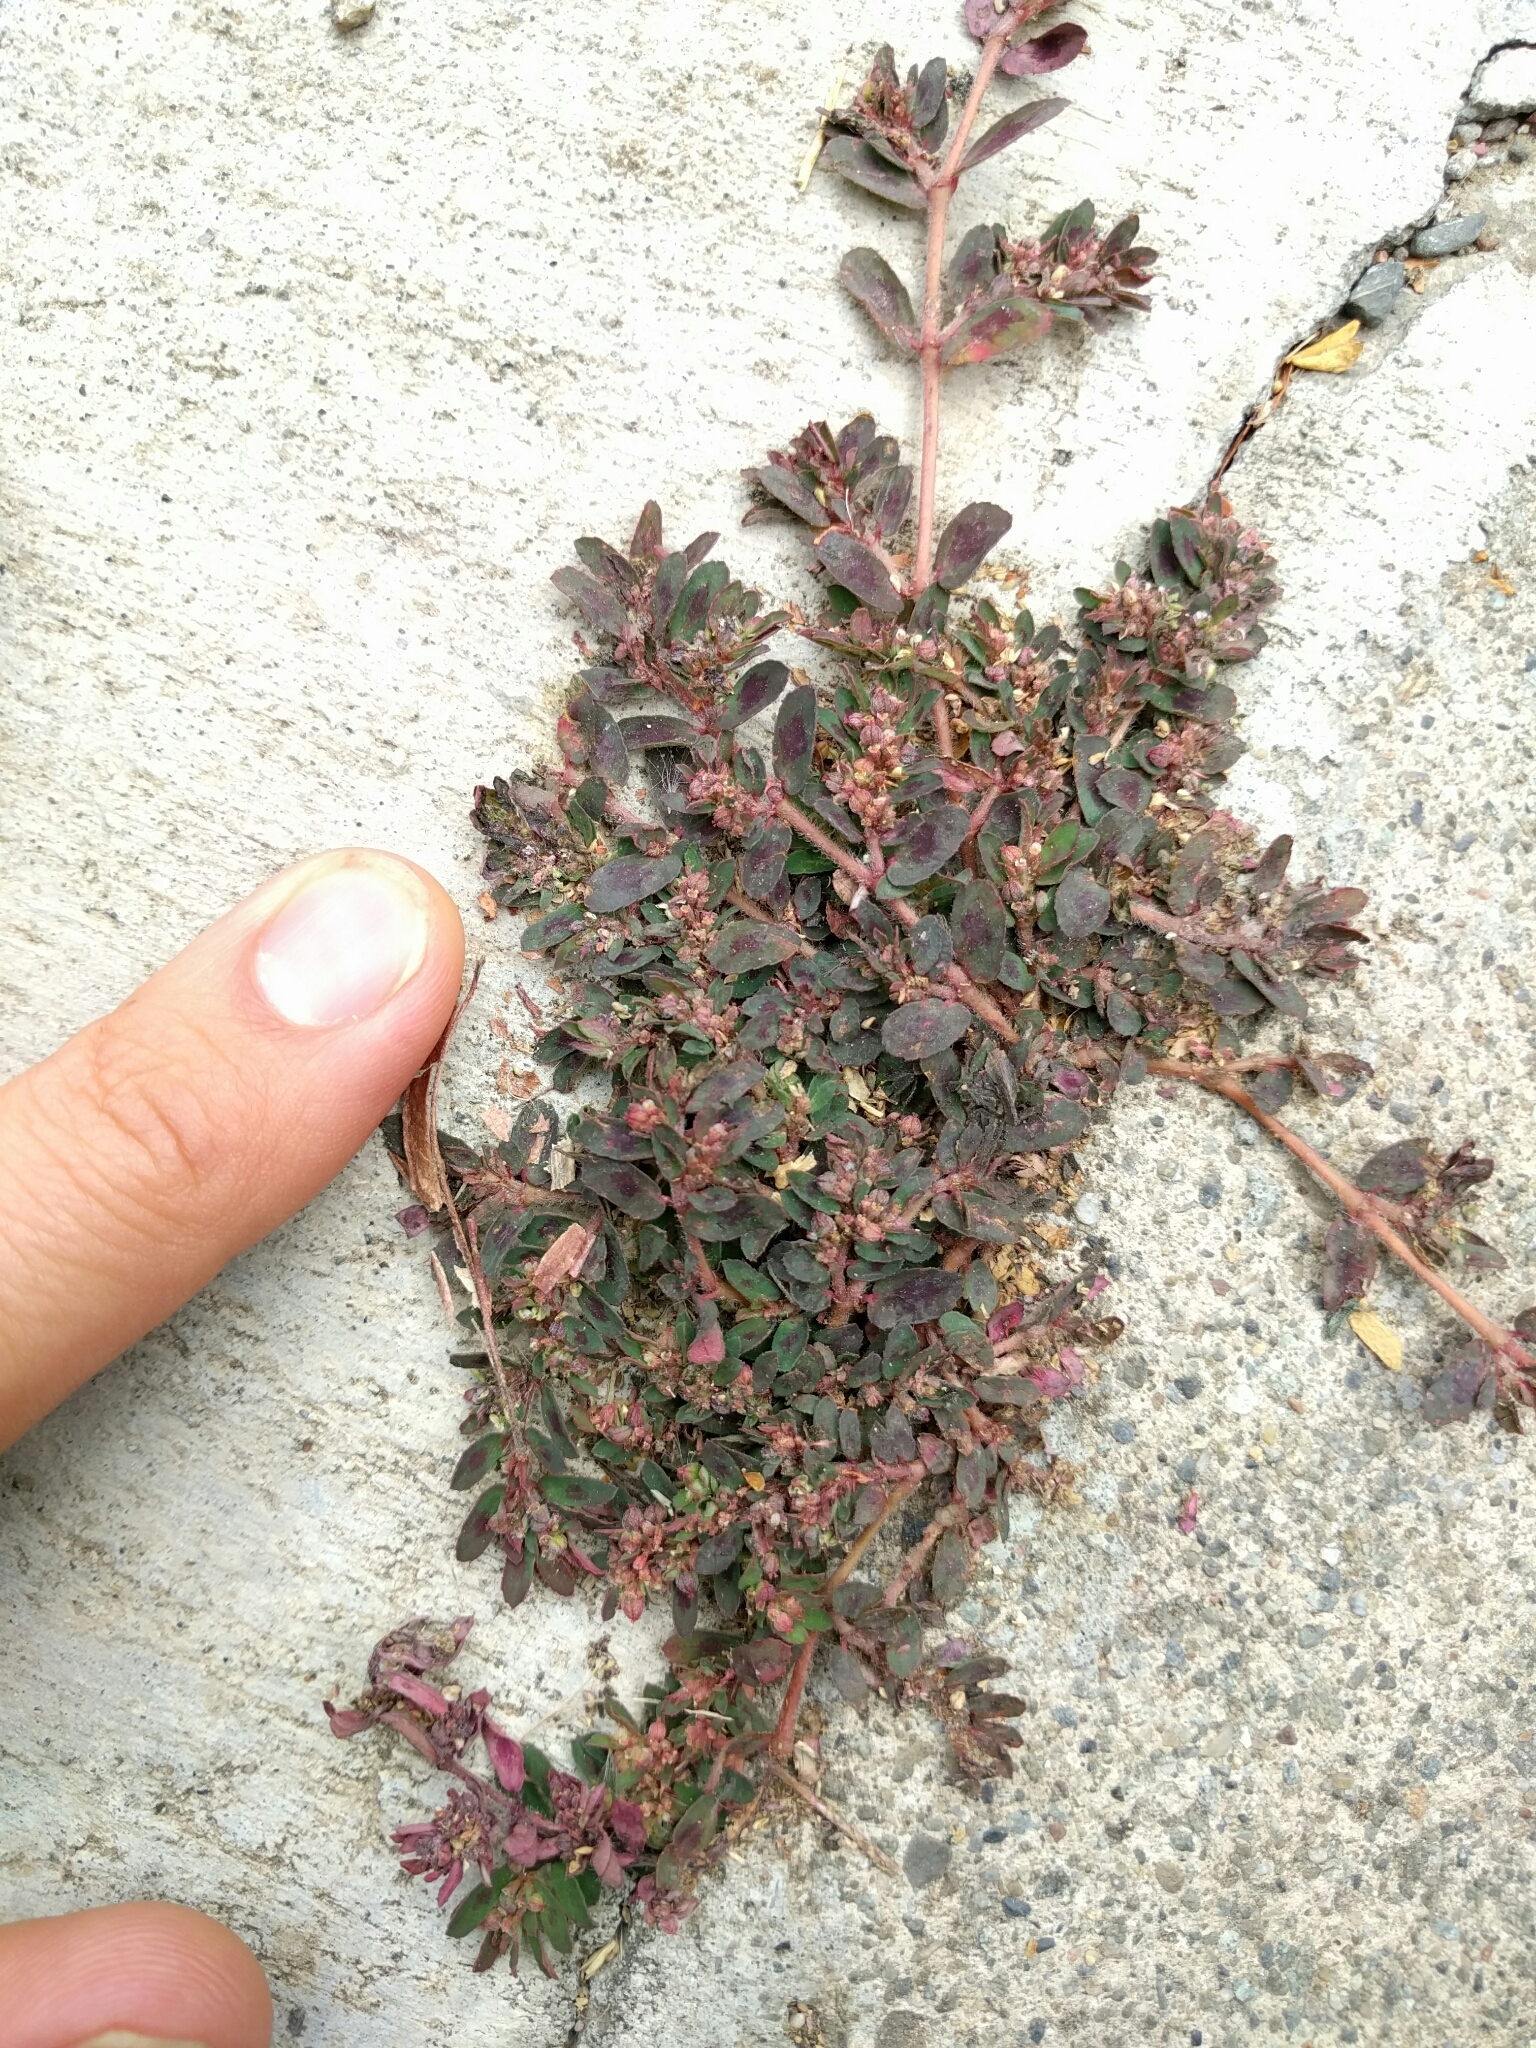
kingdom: Plantae
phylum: Tracheophyta
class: Magnoliopsida
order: Malpighiales
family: Euphorbiaceae
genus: Euphorbia
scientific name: Euphorbia maculata
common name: Spotted spurge
